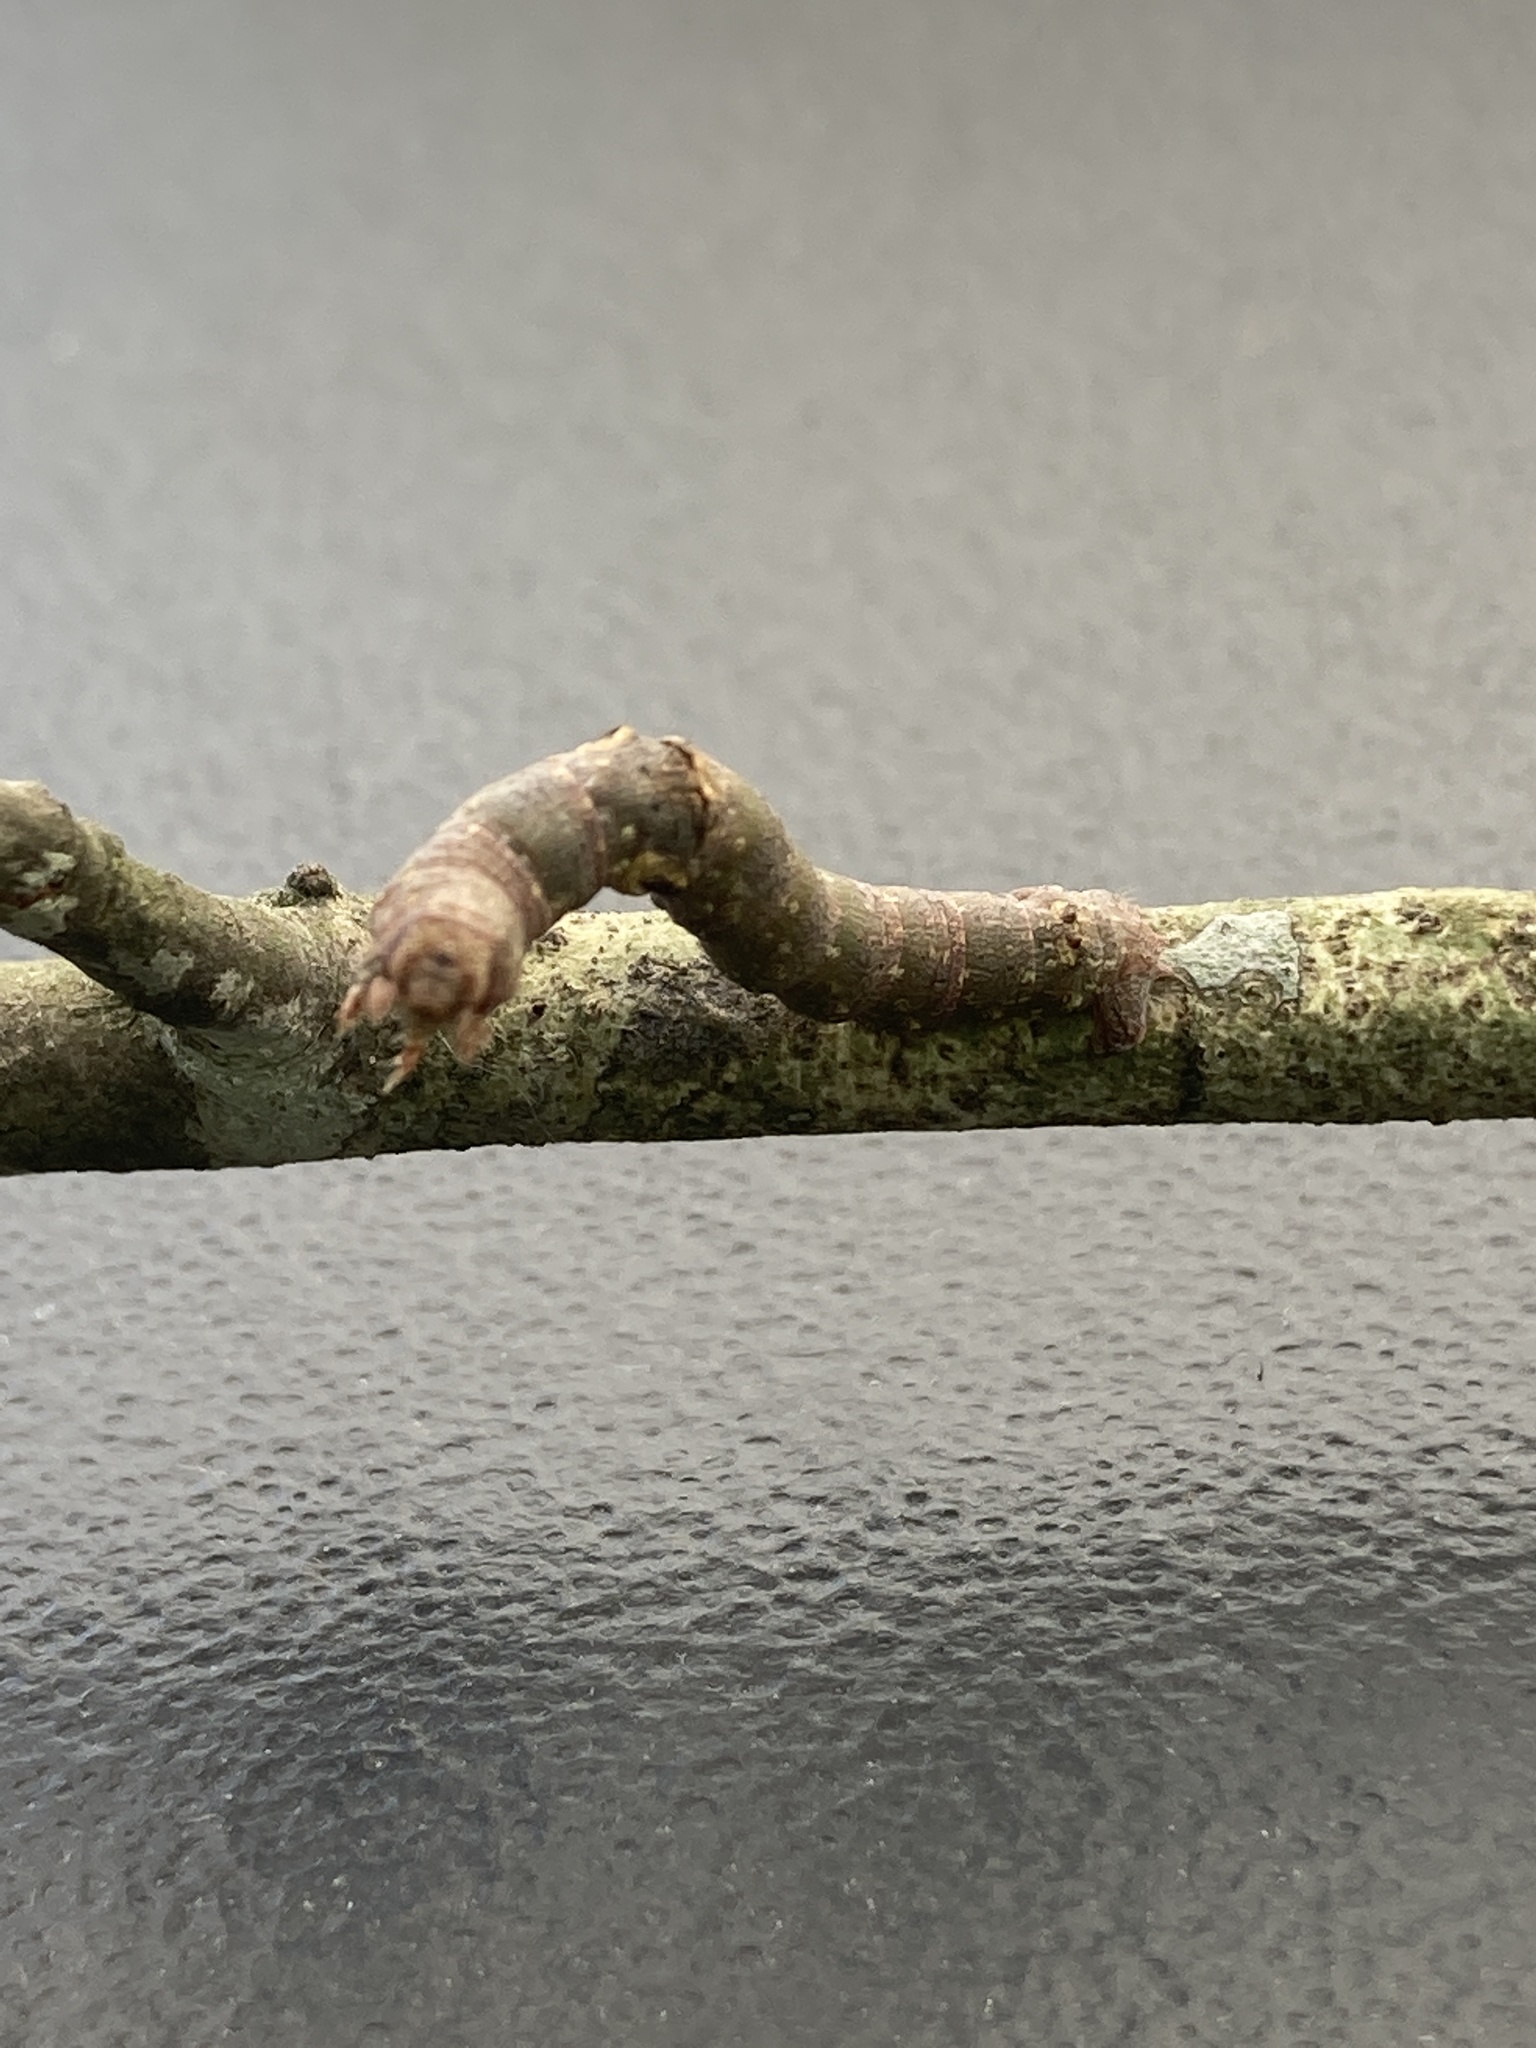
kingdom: Animalia
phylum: Arthropoda
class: Insecta
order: Lepidoptera
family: Geometridae
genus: Phaeoura
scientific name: Phaeoura quernaria
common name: Oak beauty
